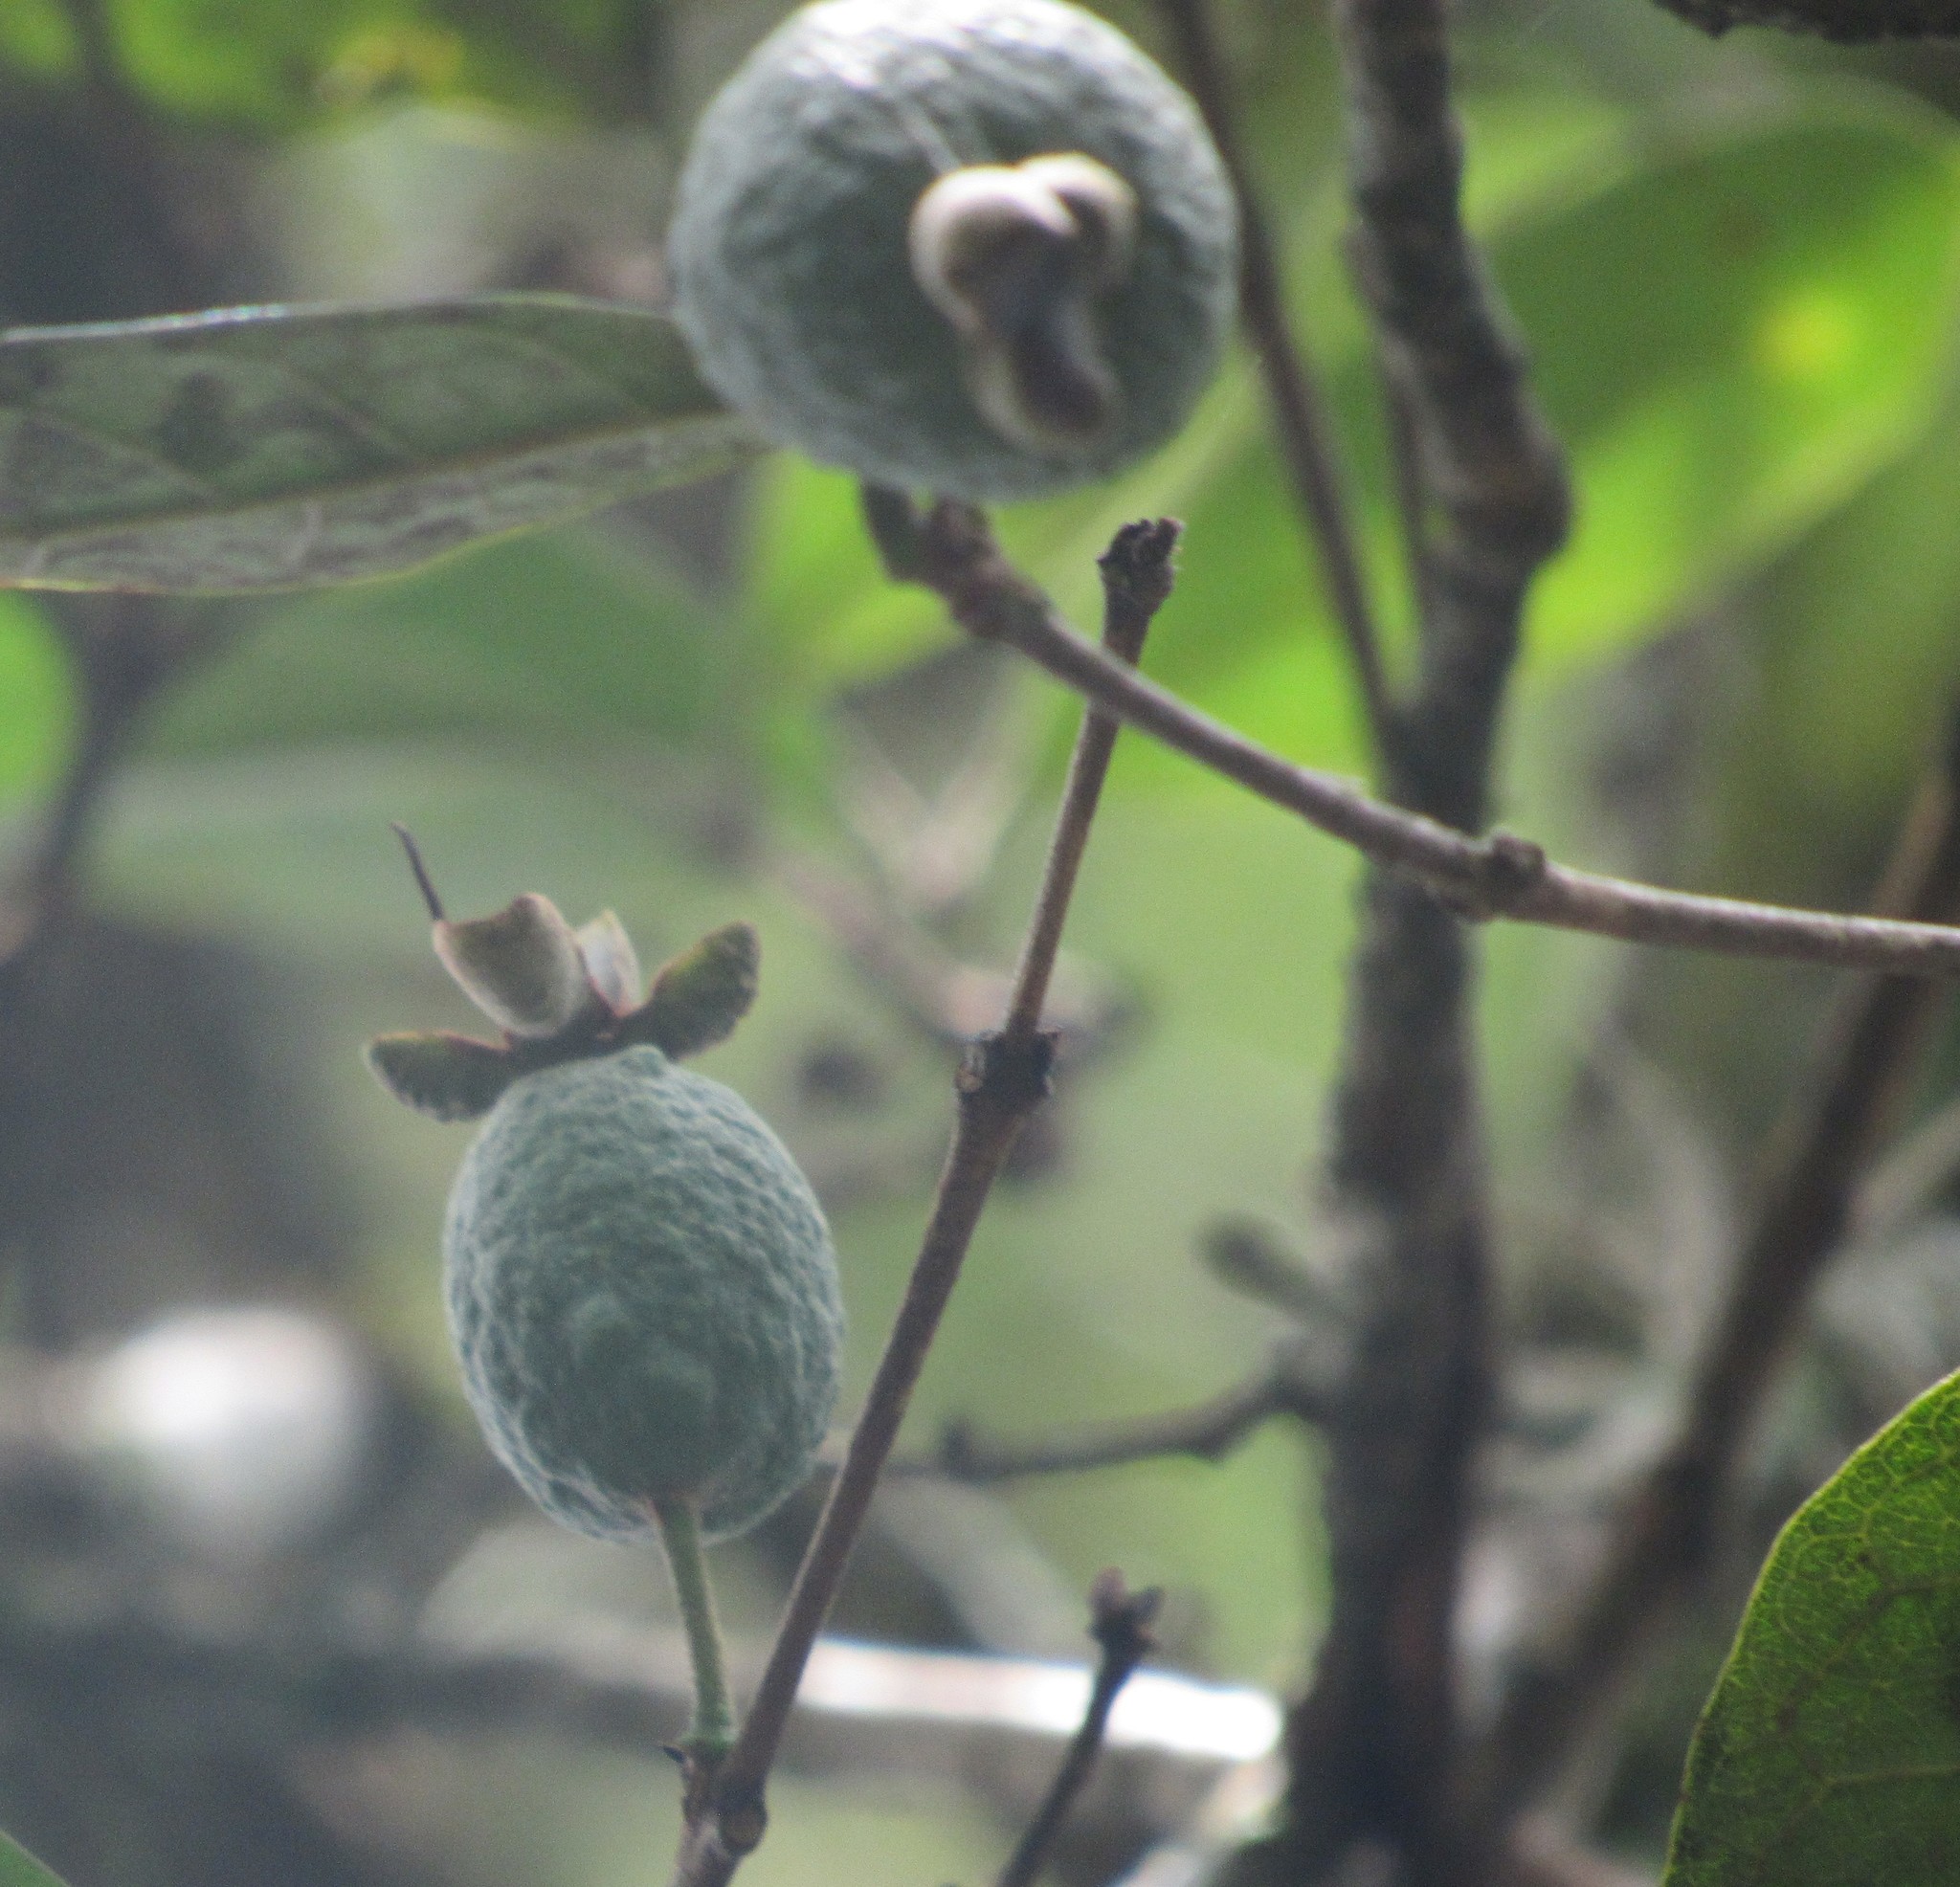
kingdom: Plantae
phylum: Tracheophyta
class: Magnoliopsida
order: Myrtales
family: Myrtaceae
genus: Feijoa
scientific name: Feijoa sellowiana
